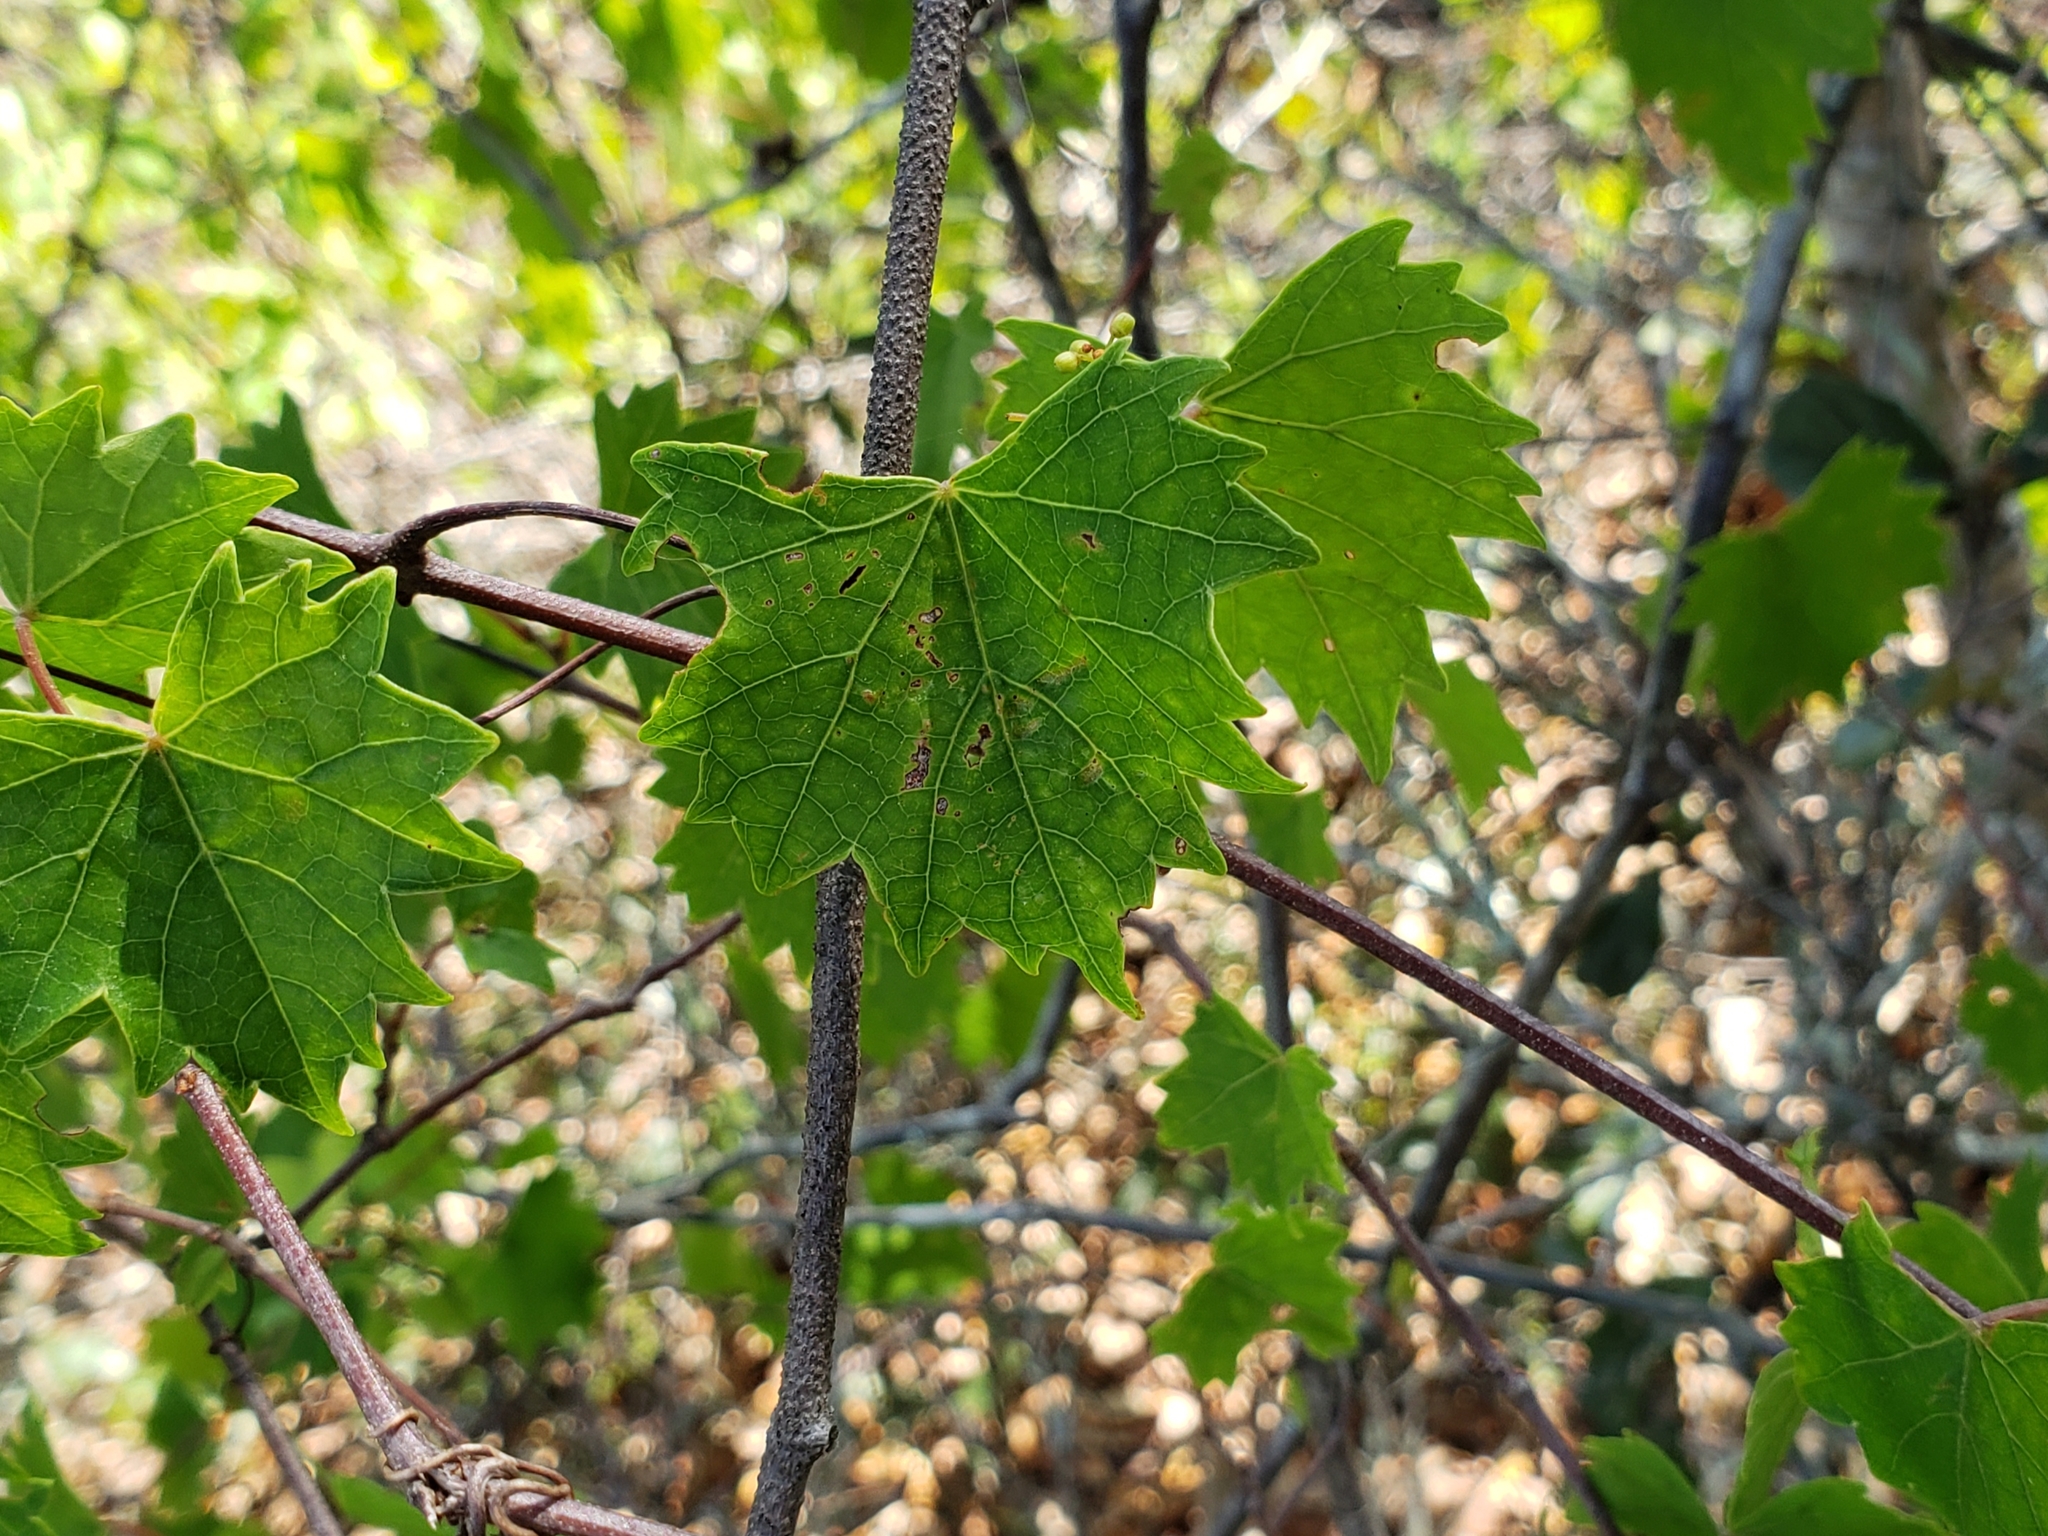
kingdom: Plantae
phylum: Tracheophyta
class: Magnoliopsida
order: Vitales
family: Vitaceae
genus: Vitis
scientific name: Vitis rotundifolia
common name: Muscadine grape
